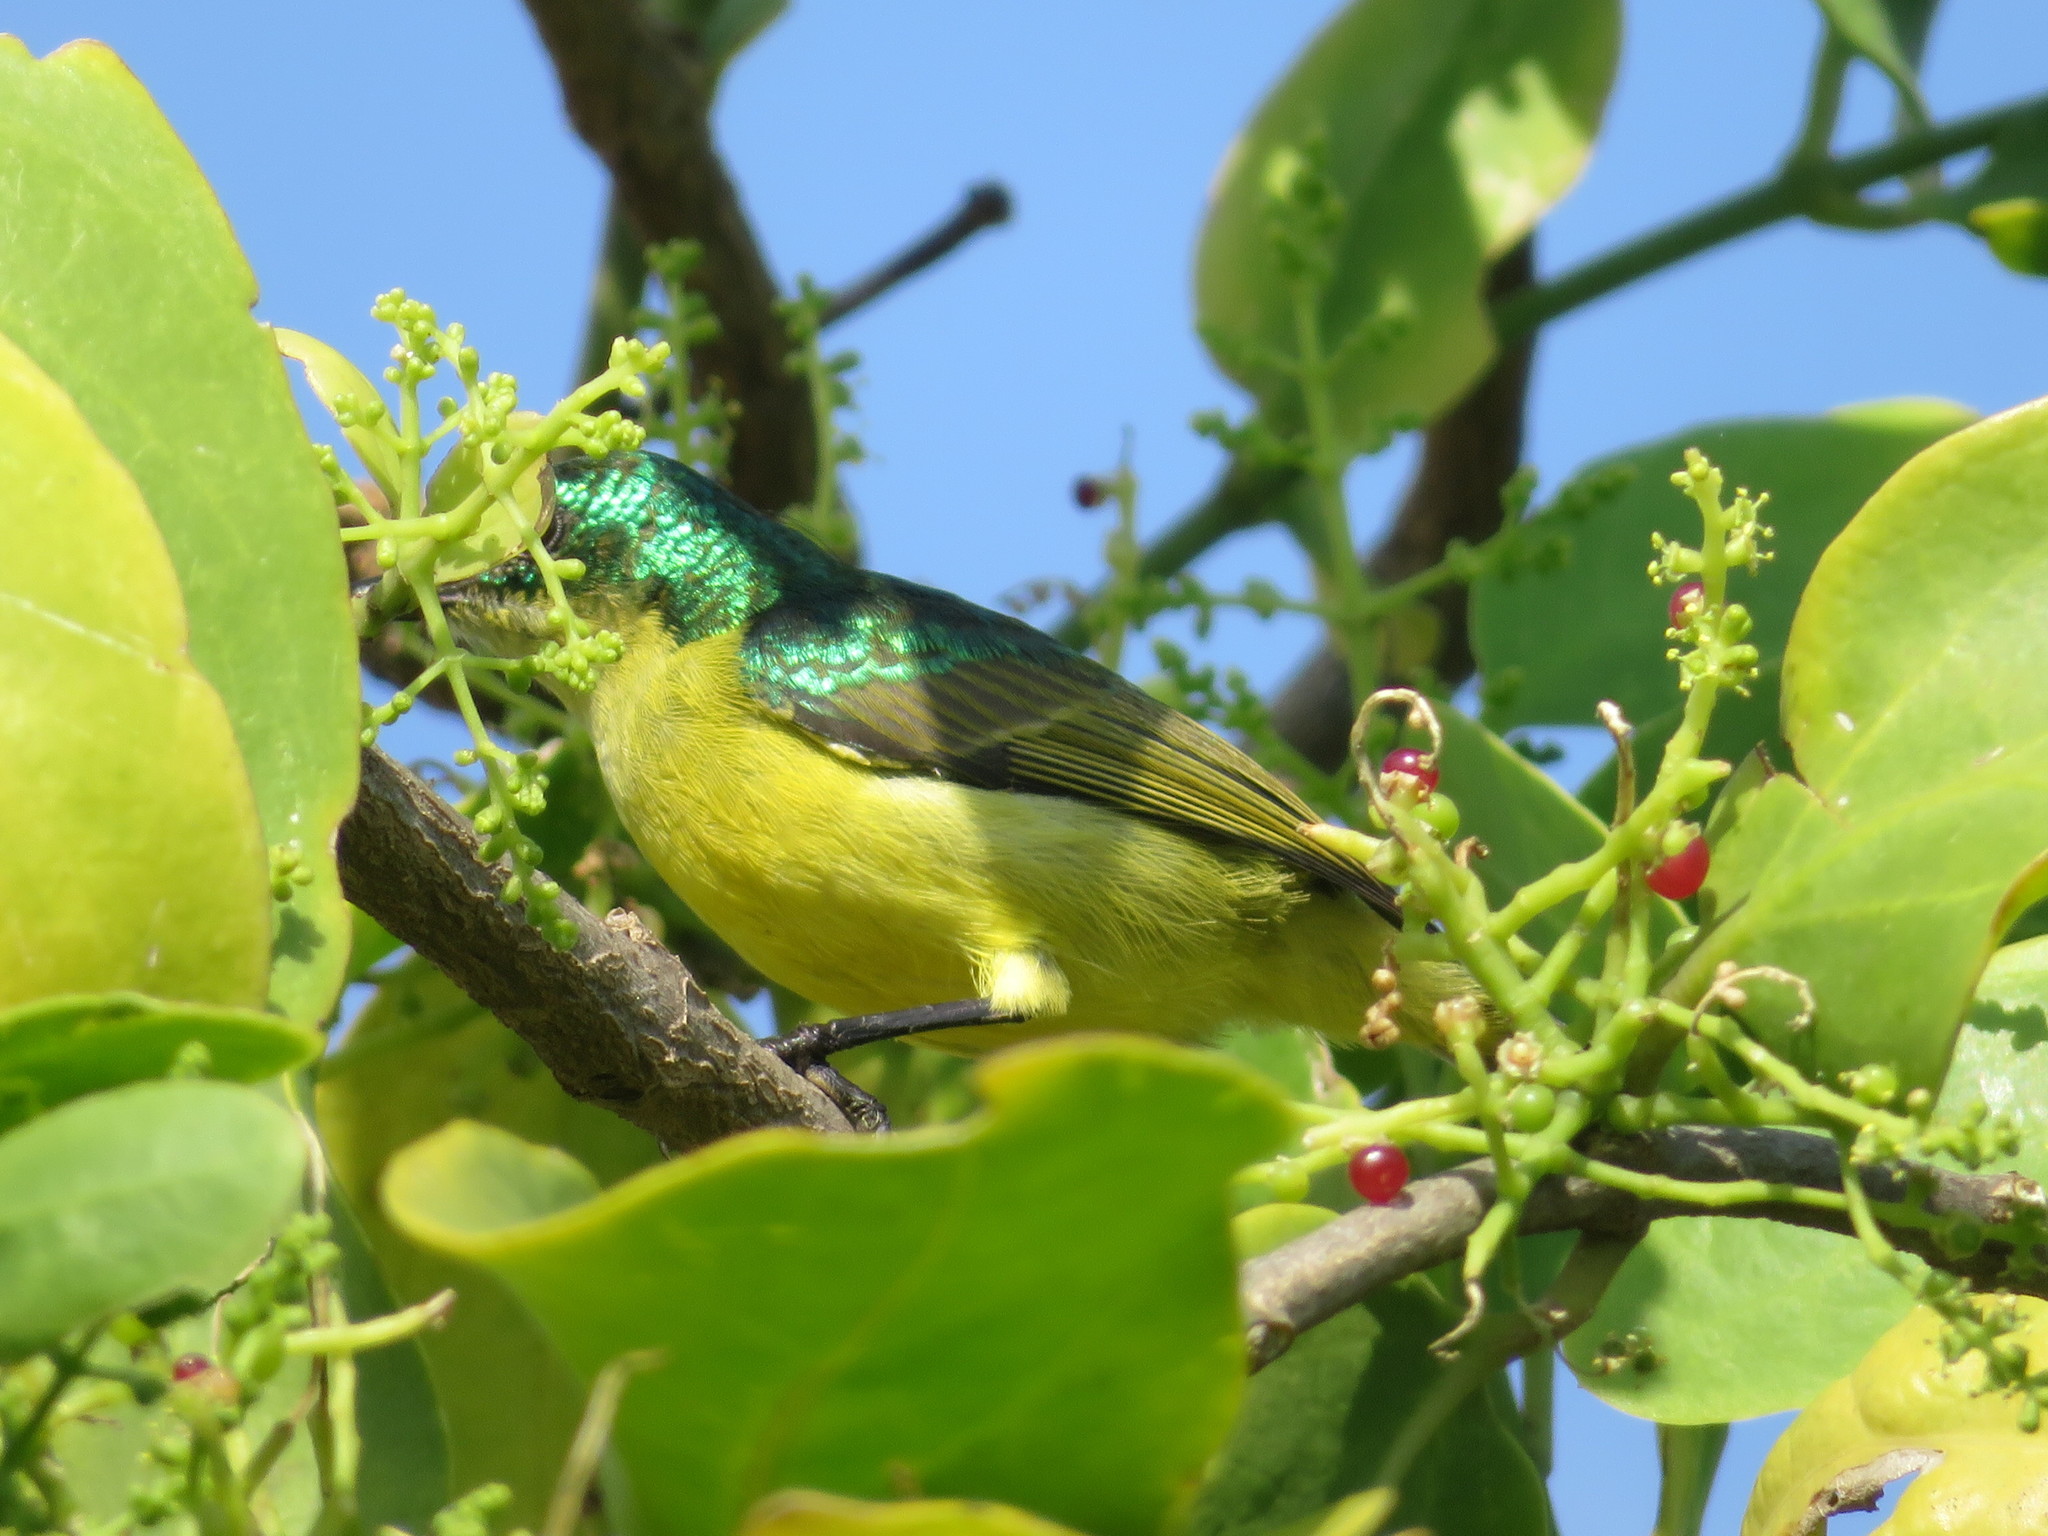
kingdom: Animalia
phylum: Chordata
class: Aves
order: Passeriformes
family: Nectariniidae
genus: Hedydipna
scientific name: Hedydipna collaris
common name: Collared sunbird
